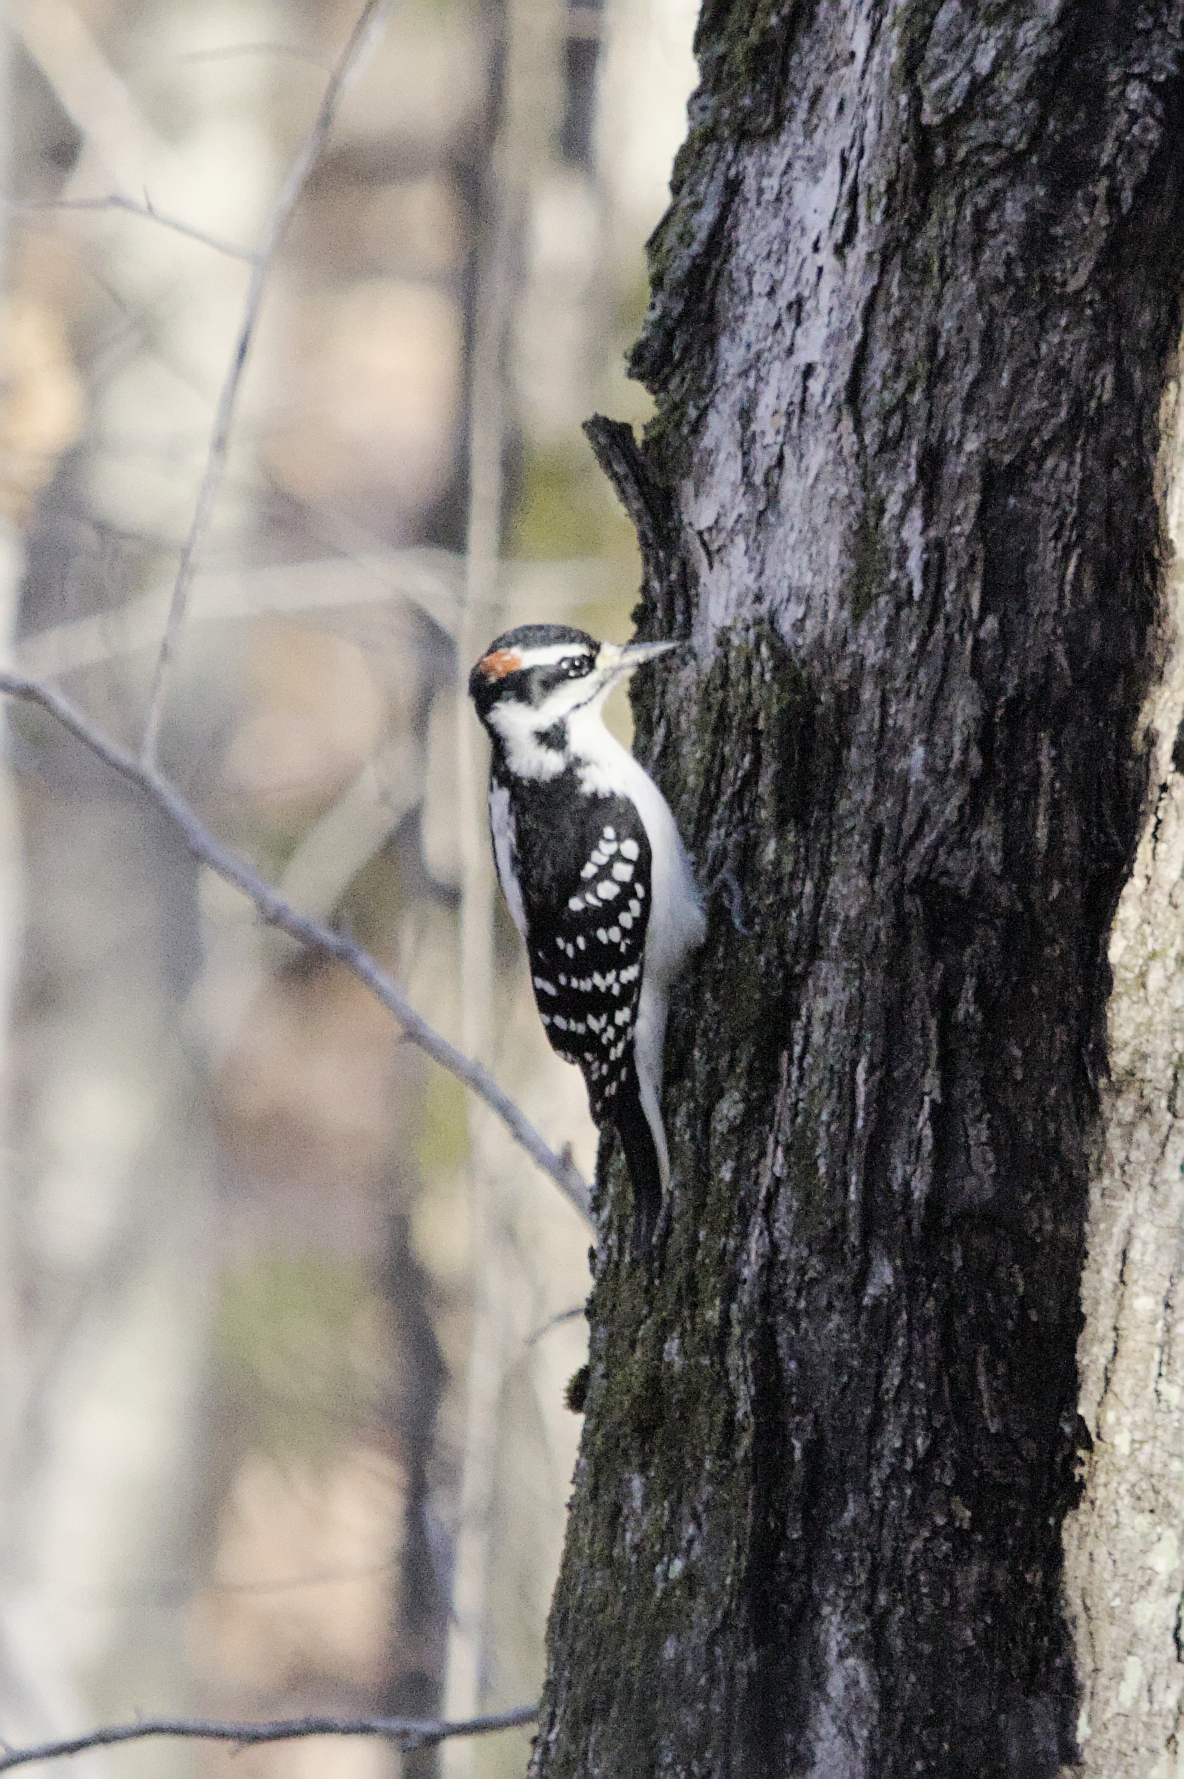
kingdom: Animalia
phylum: Chordata
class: Aves
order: Piciformes
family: Picidae
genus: Leuconotopicus
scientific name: Leuconotopicus villosus
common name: Hairy woodpecker
